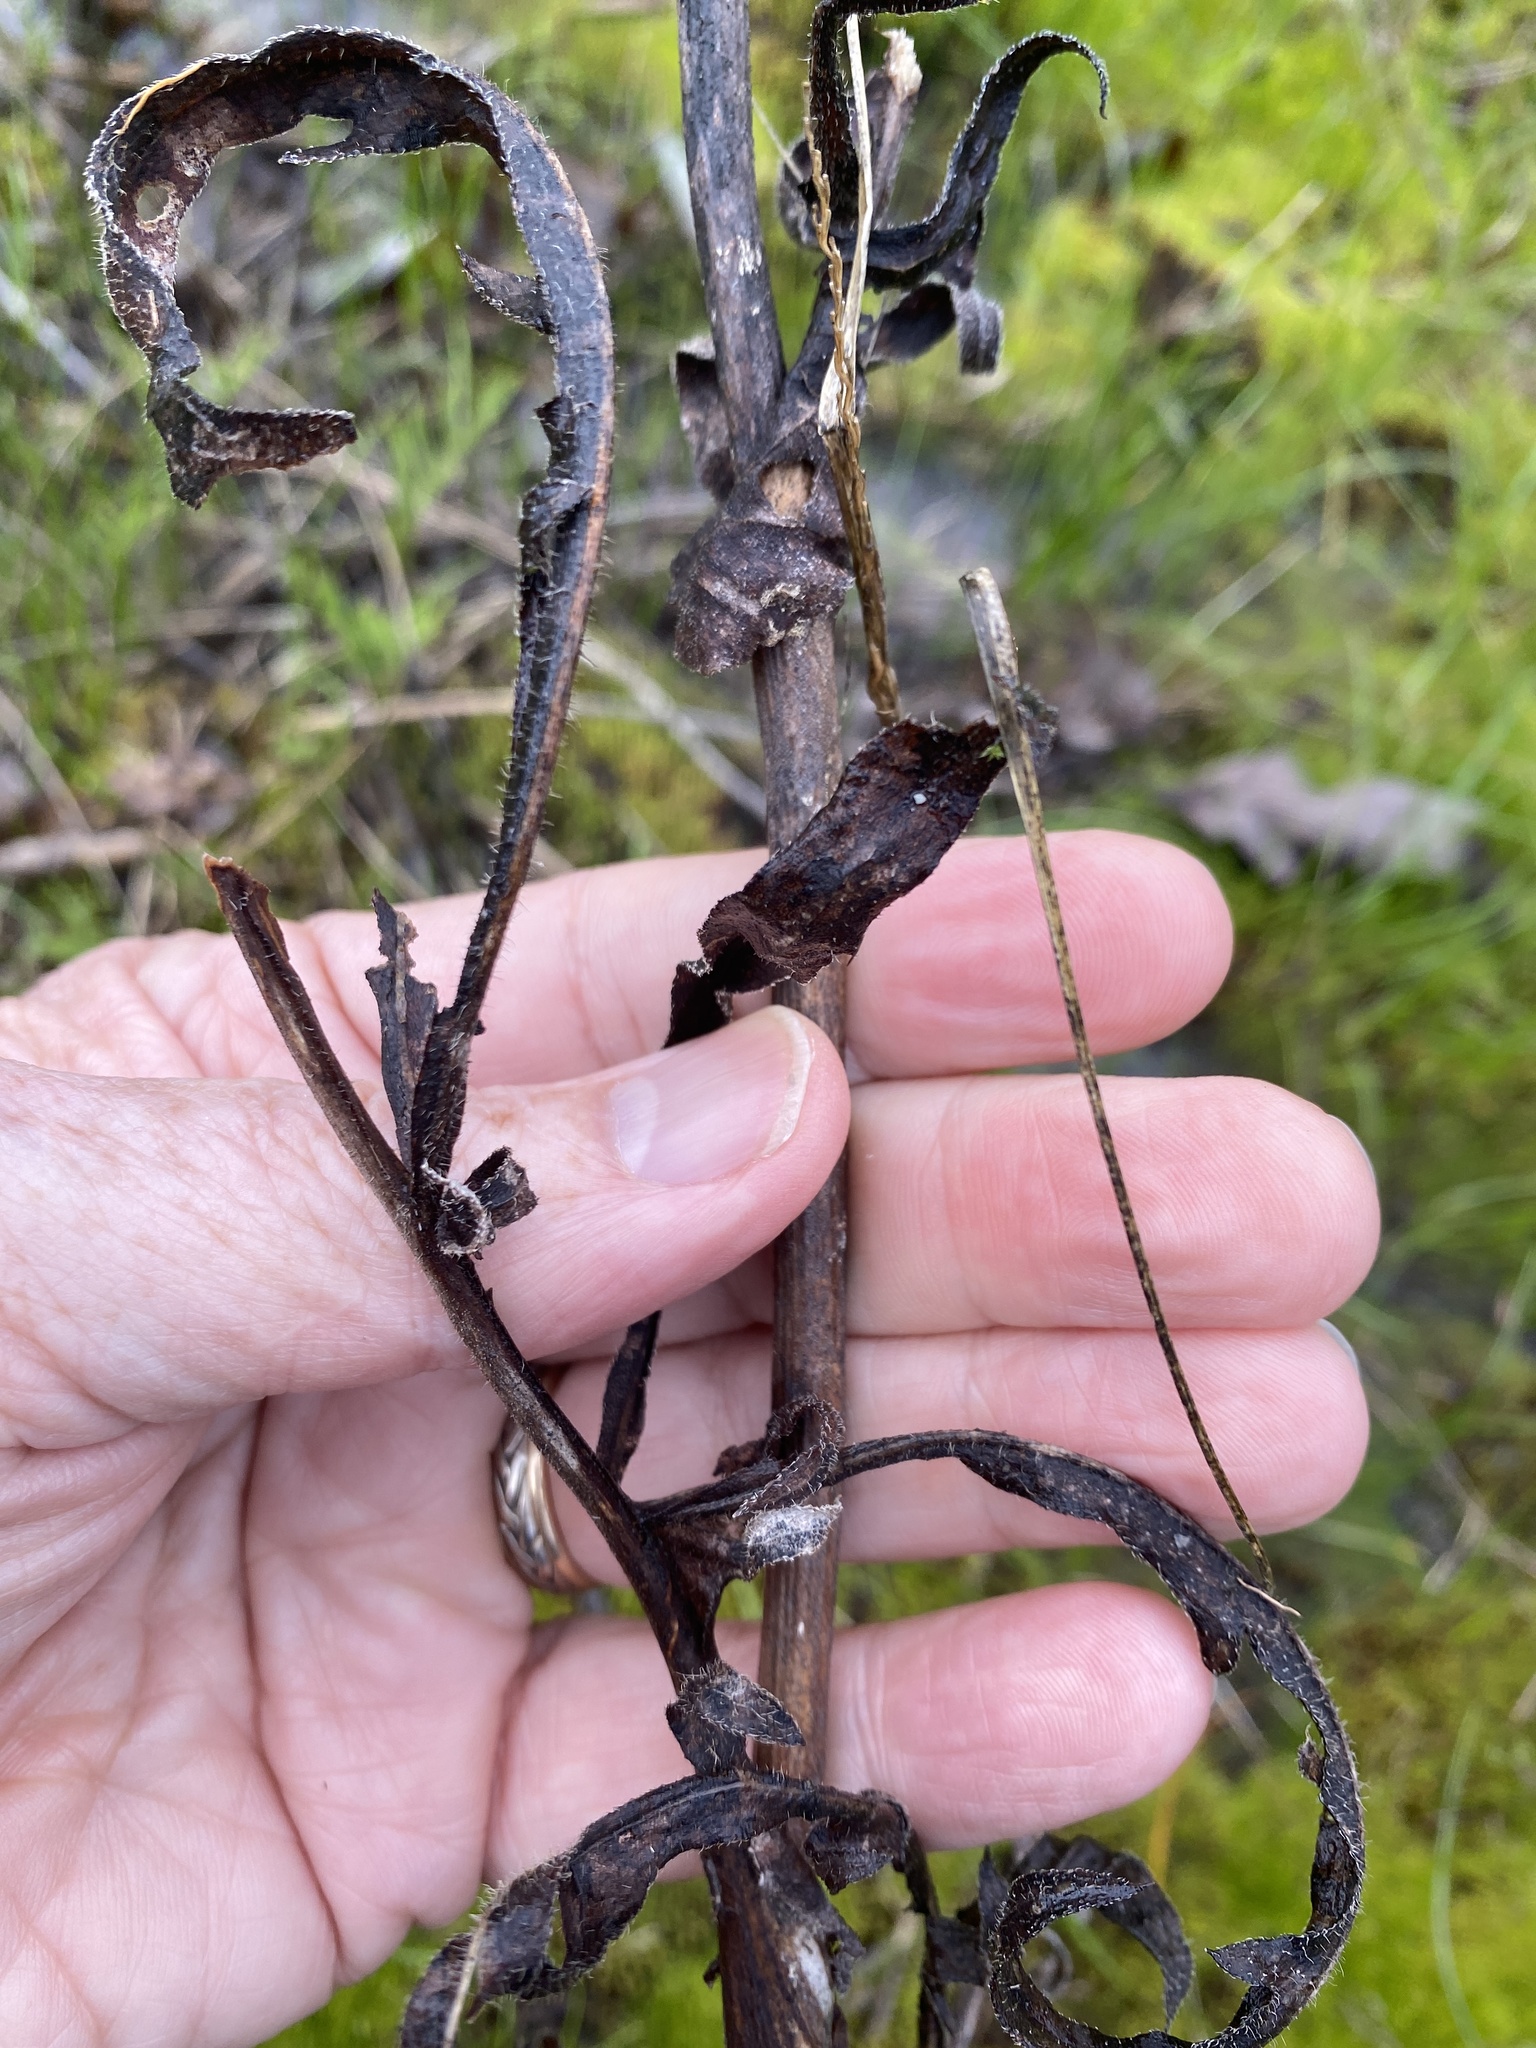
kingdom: Plantae
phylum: Tracheophyta
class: Magnoliopsida
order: Asterales
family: Asteraceae
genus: Silphium
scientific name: Silphium laciniatum
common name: Polarplant
